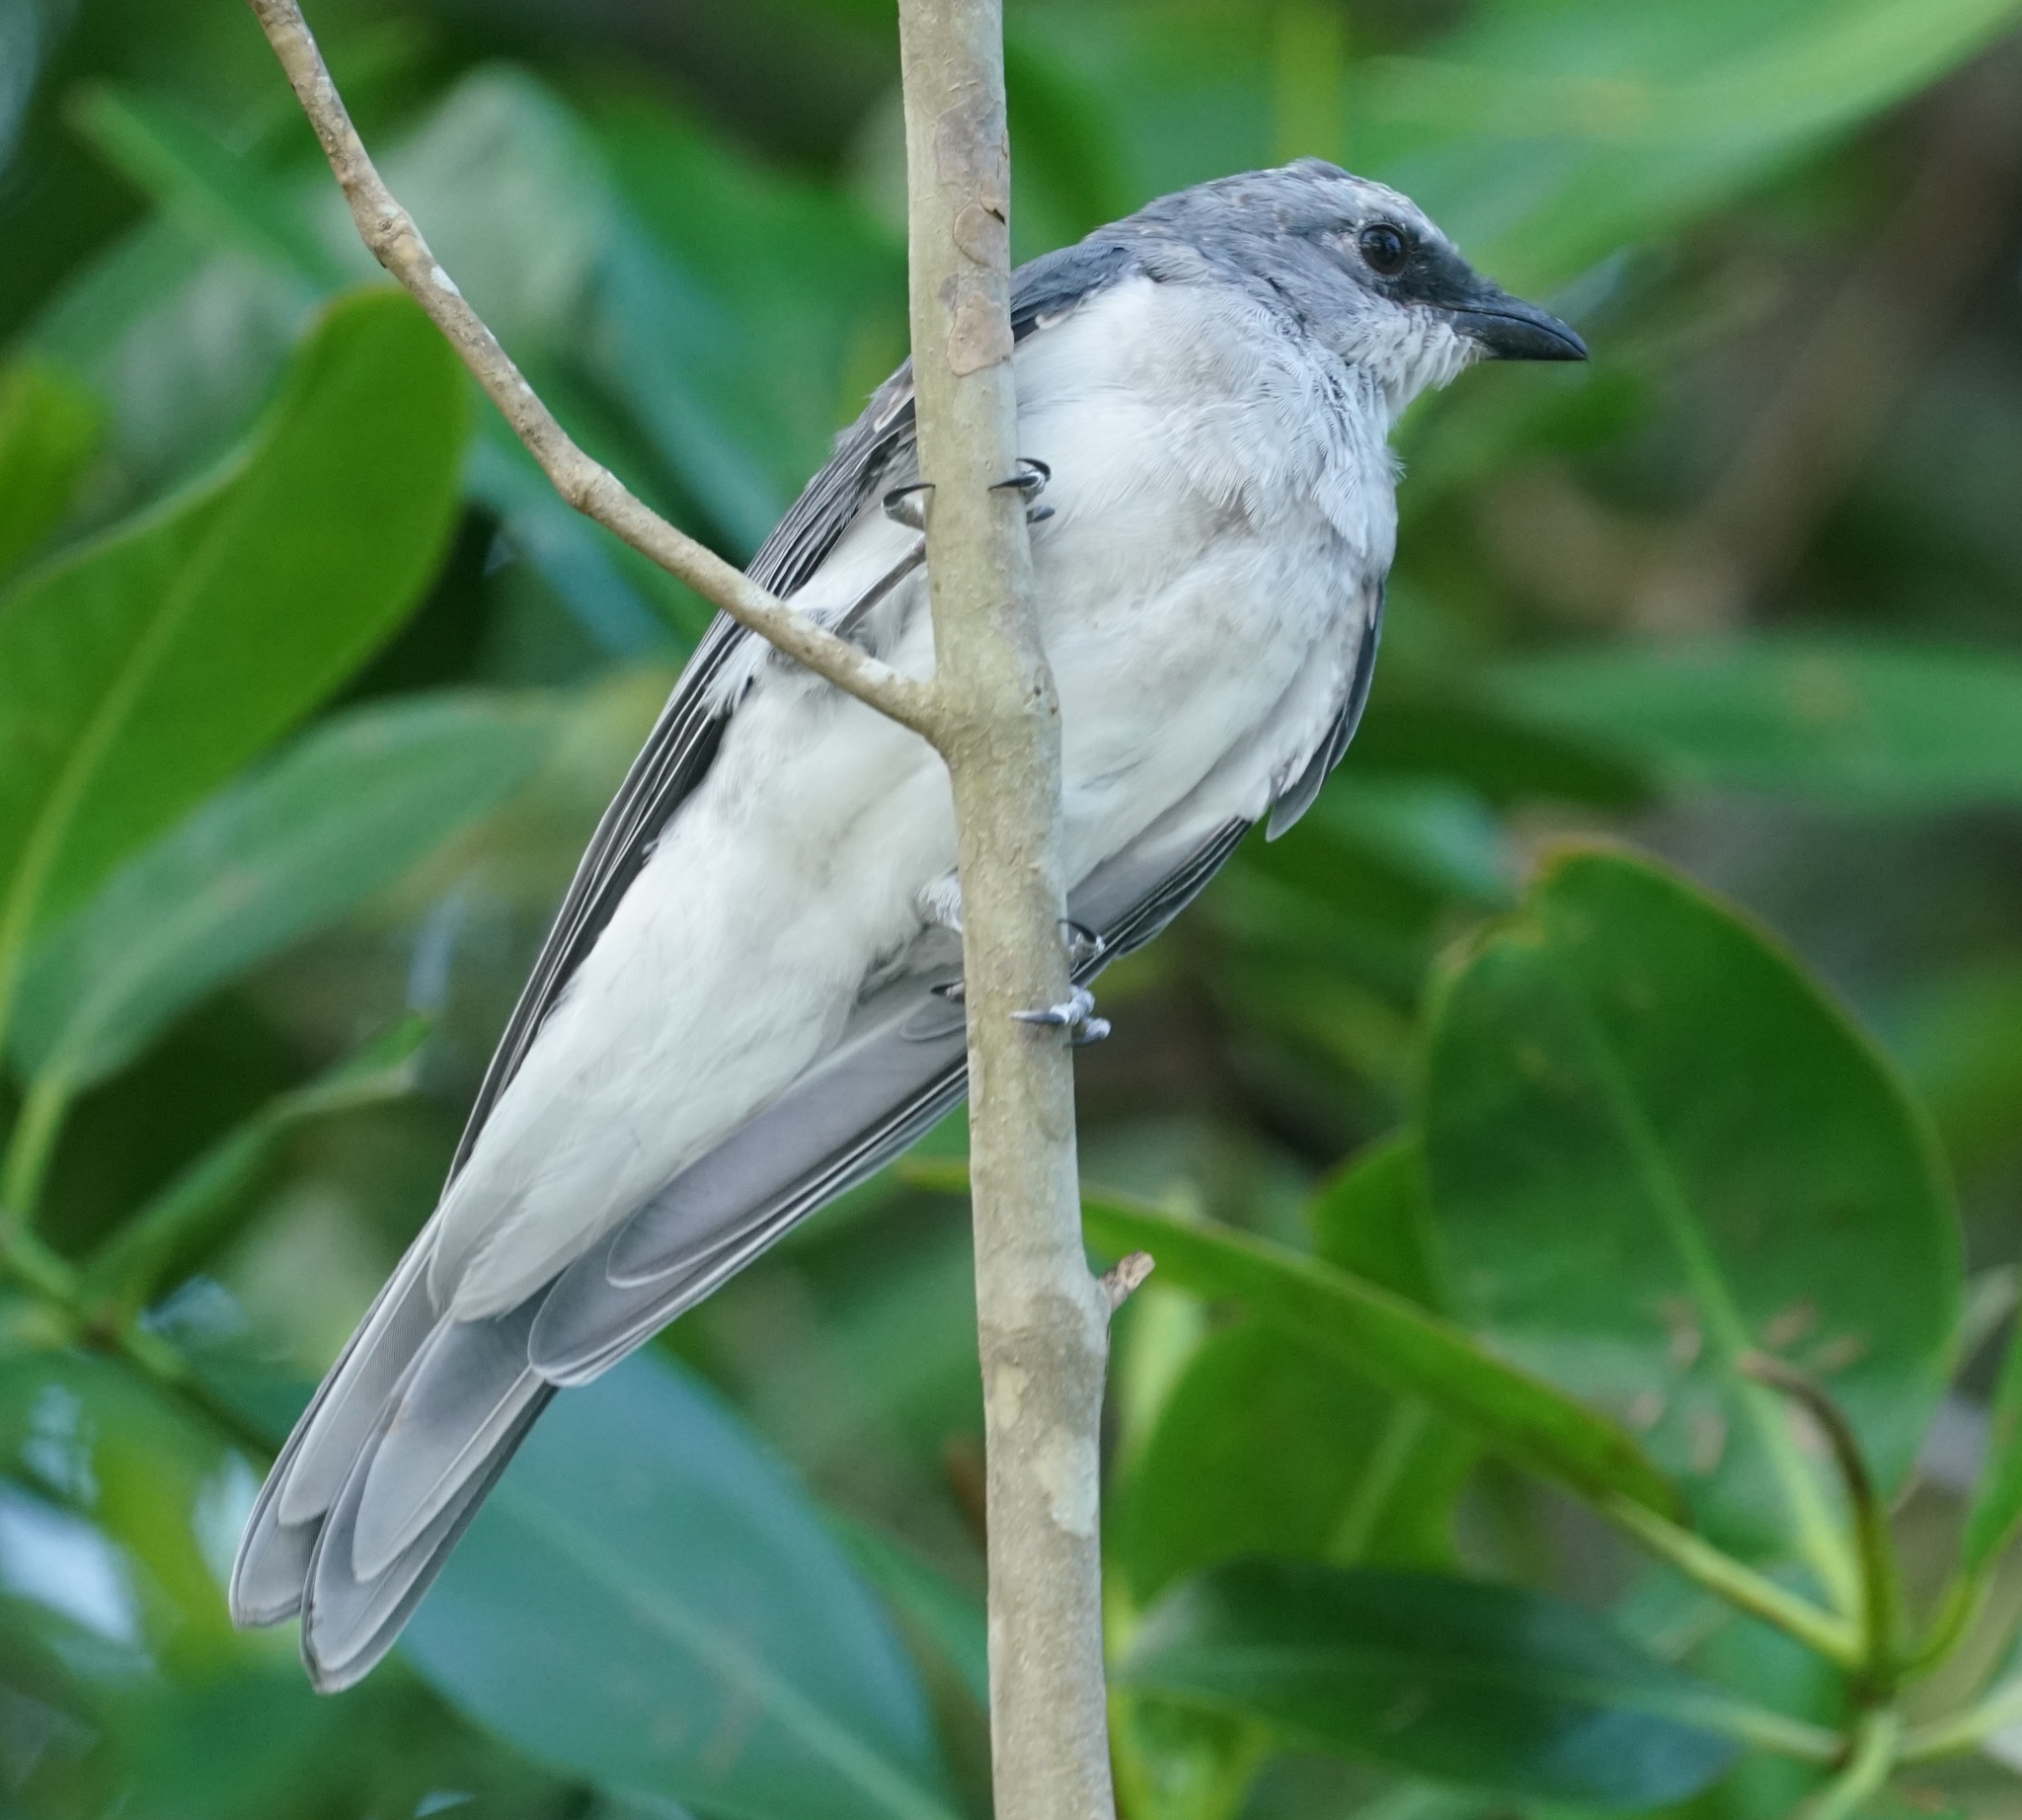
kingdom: Animalia
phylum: Chordata
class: Aves
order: Passeriformes
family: Campephagidae
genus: Coracina
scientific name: Coracina papuensis
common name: White-bellied cuckooshrike
